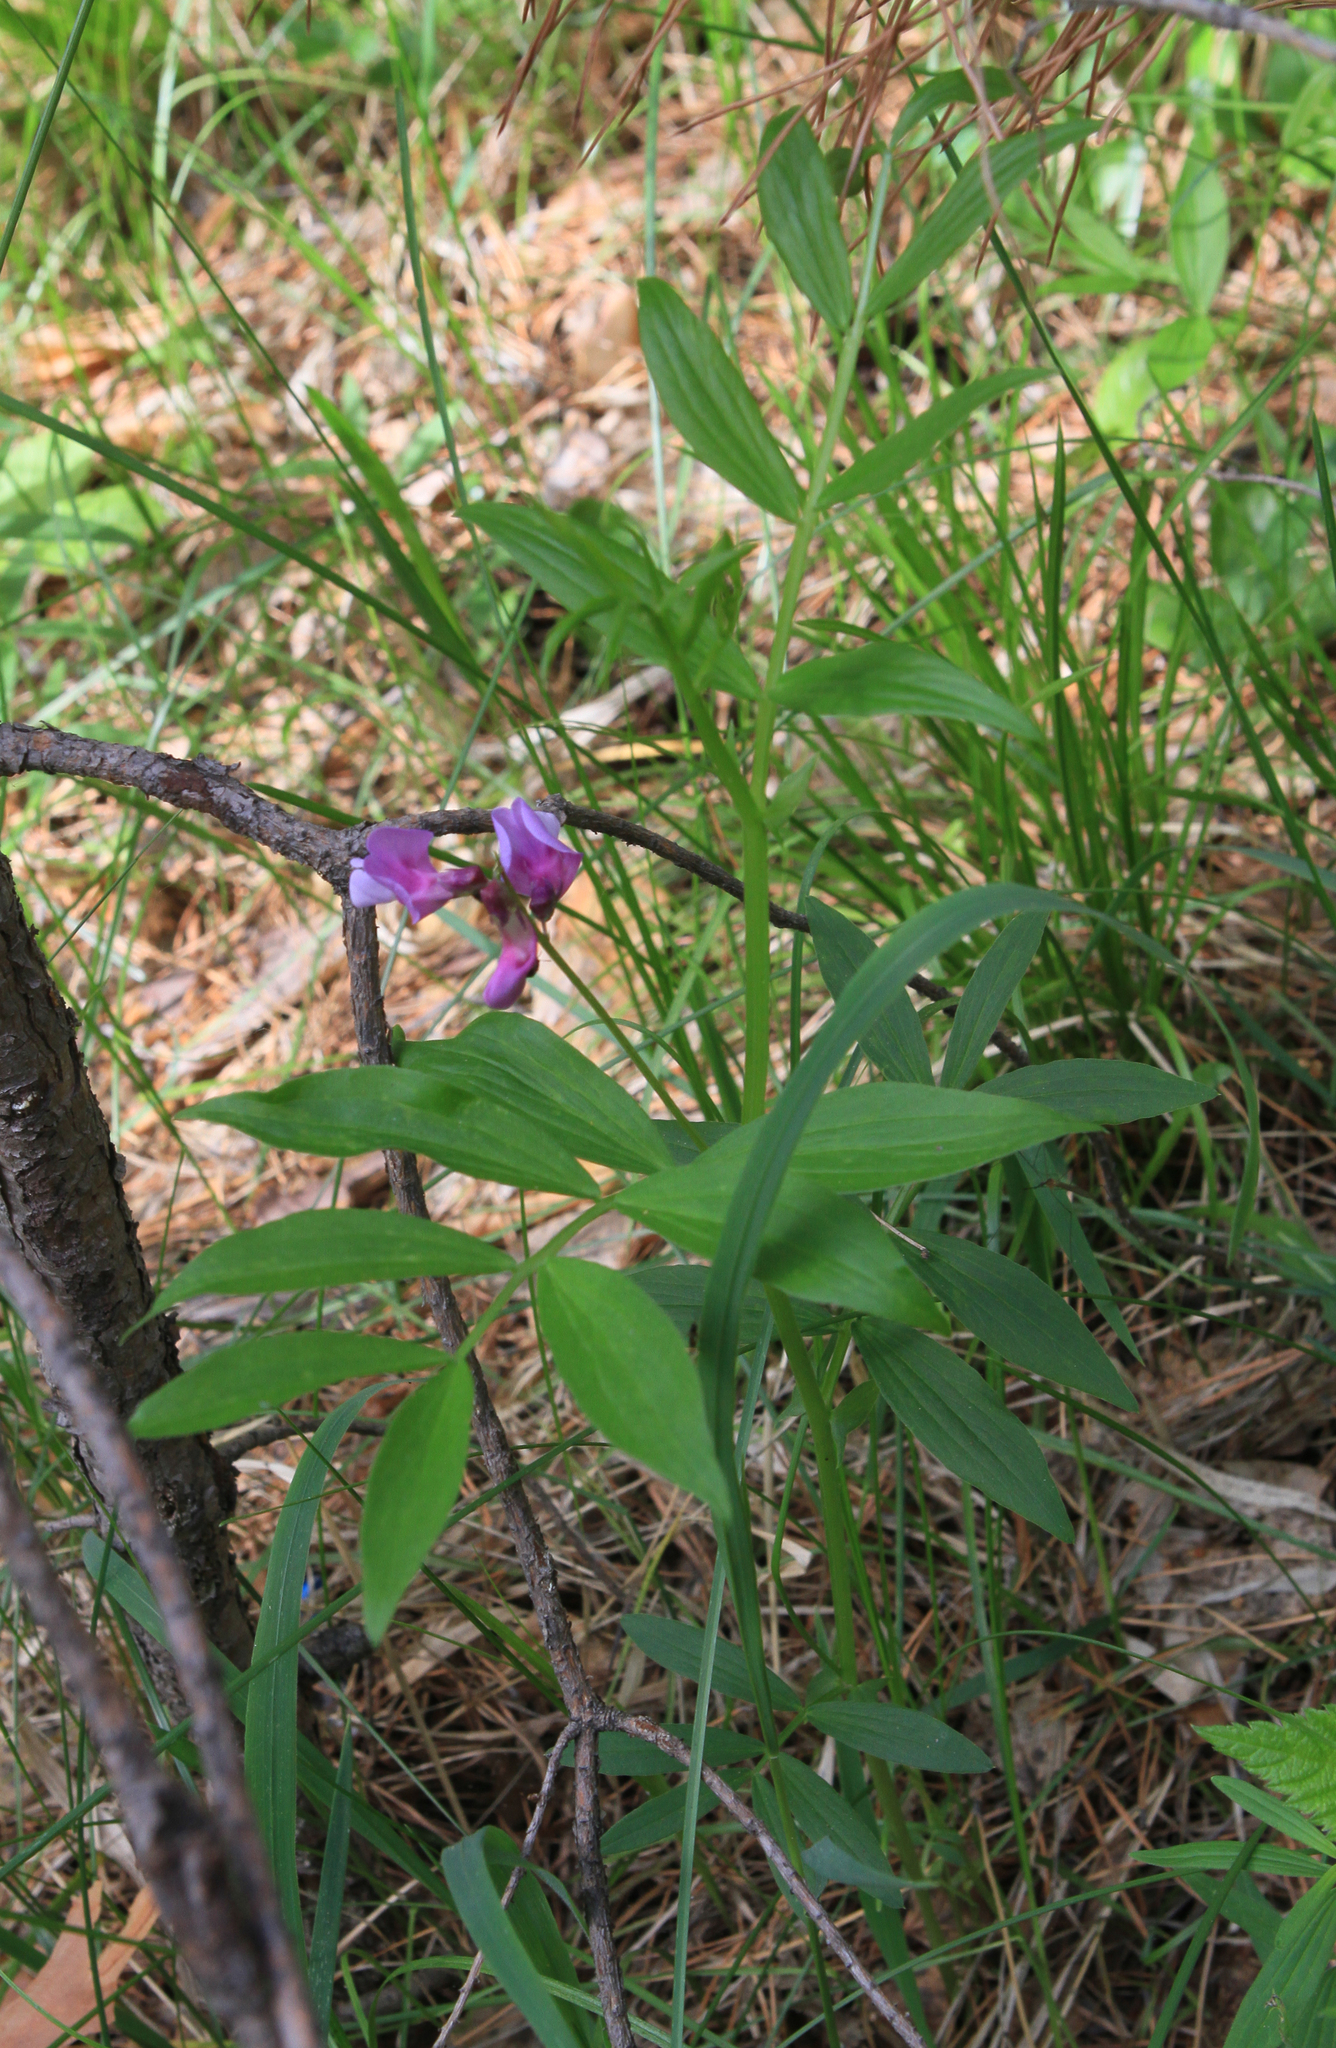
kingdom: Plantae
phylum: Tracheophyta
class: Magnoliopsida
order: Fabales
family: Fabaceae
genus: Lathyrus
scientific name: Lathyrus vernus
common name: Spring pea
